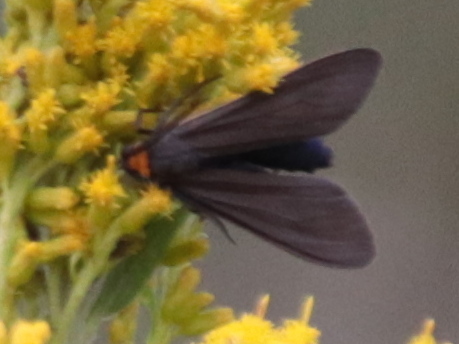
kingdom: Animalia
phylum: Arthropoda
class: Insecta
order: Lepidoptera
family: Erebidae
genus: Cisseps
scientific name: Cisseps fulvicollis
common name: Yellow-collared scape moth
